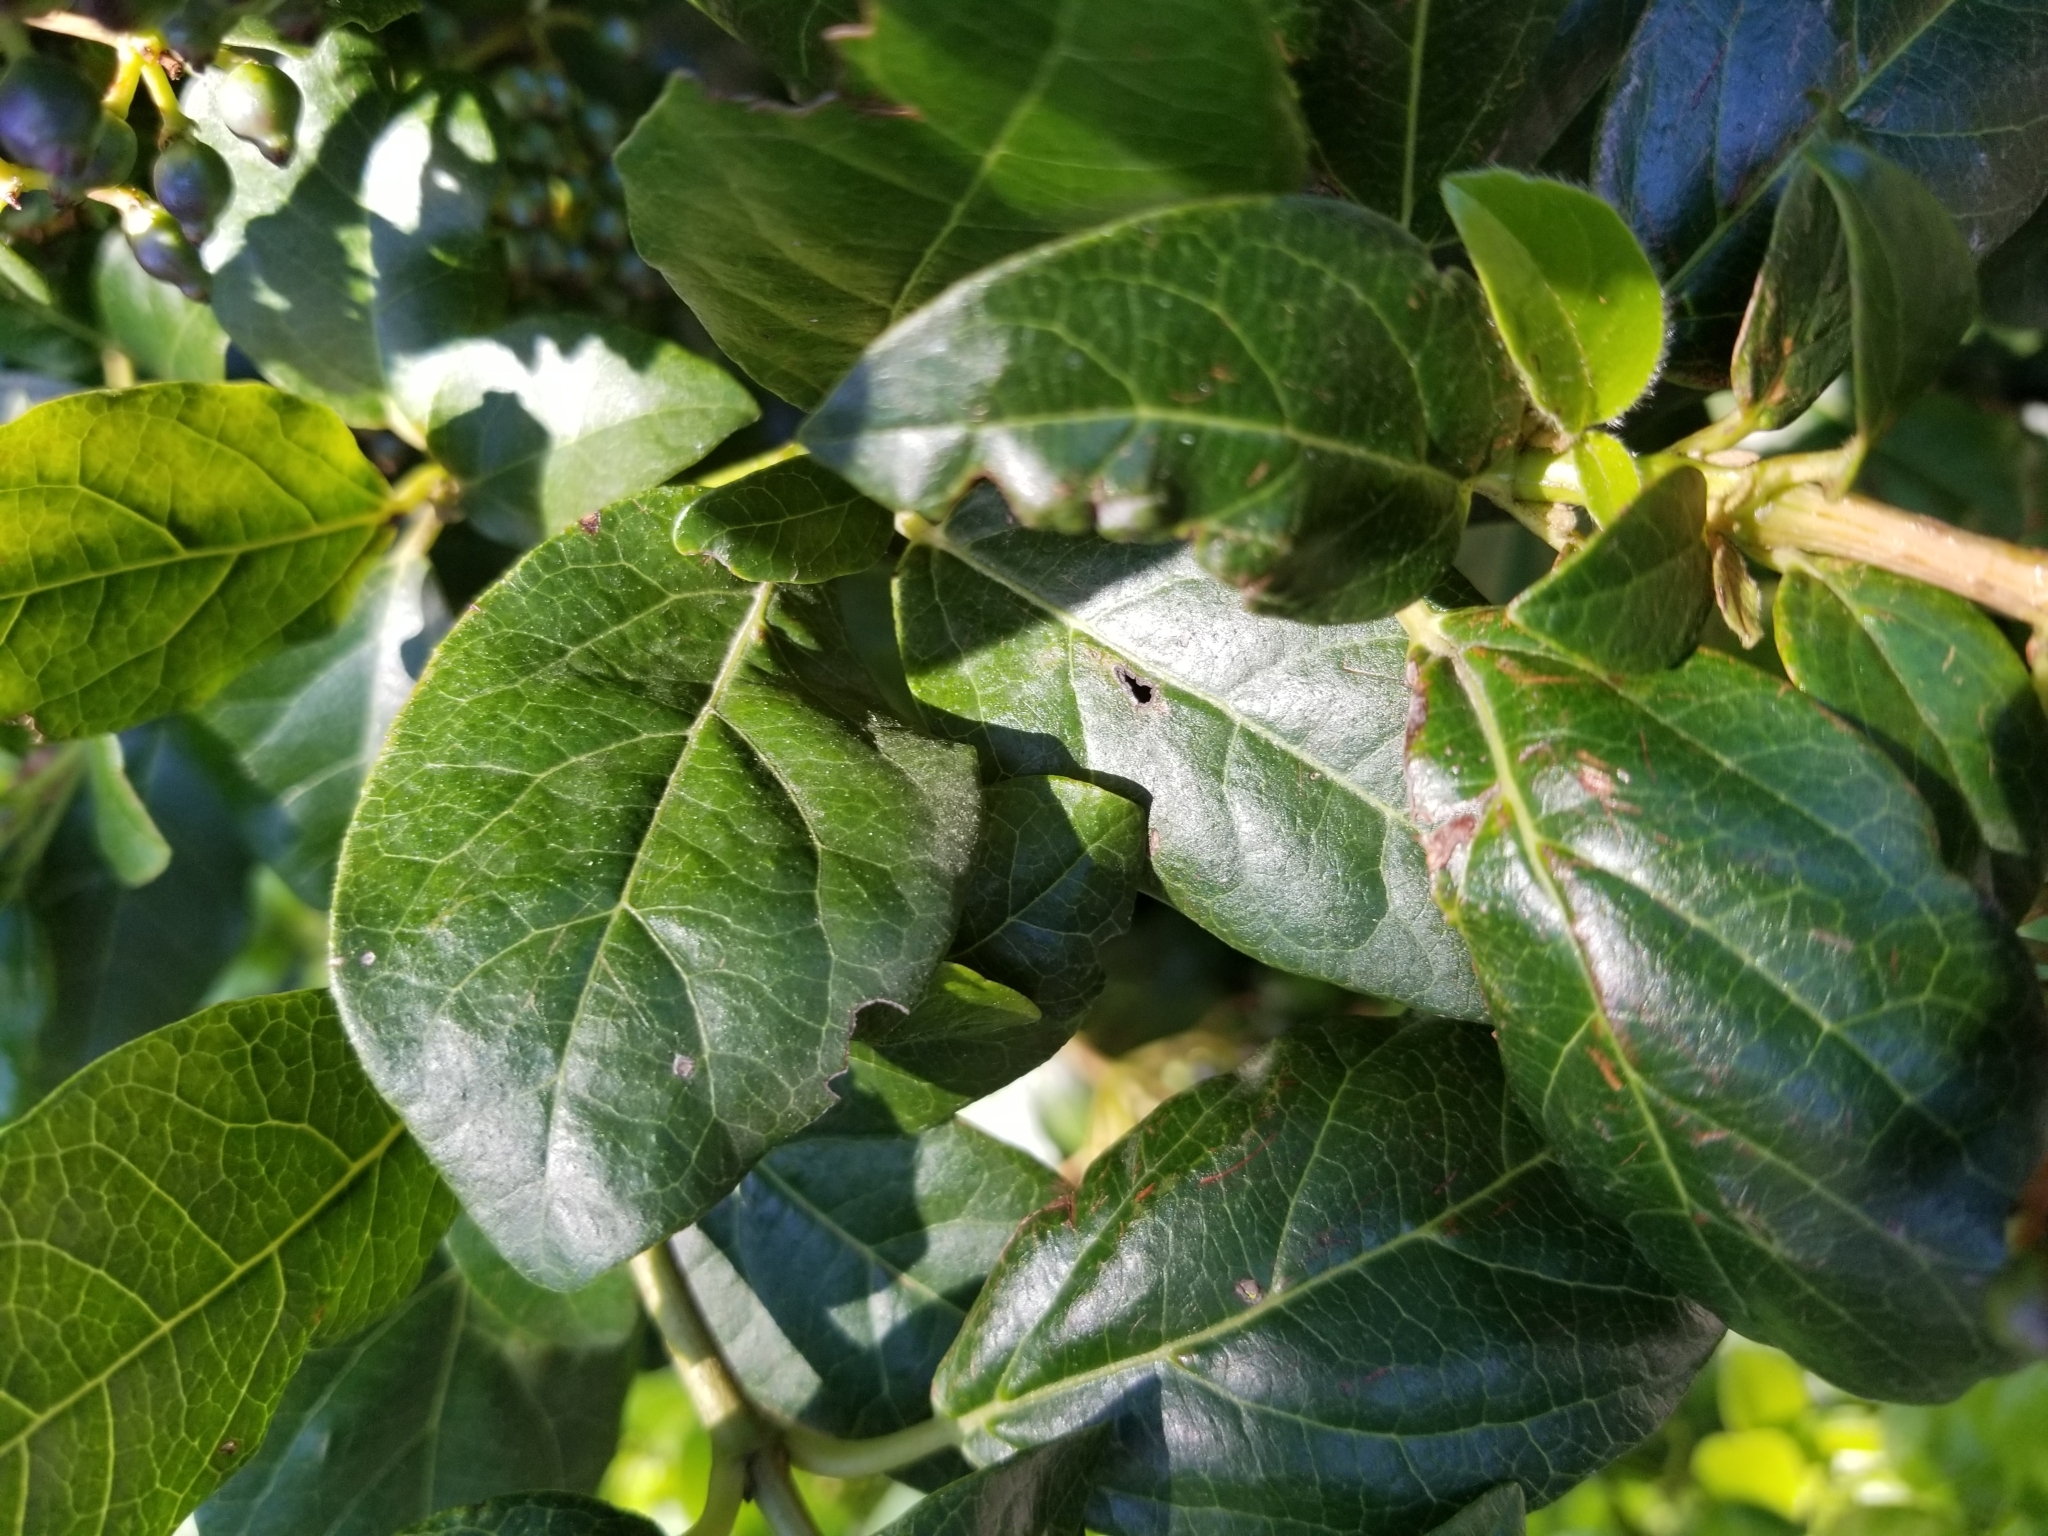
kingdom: Plantae
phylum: Tracheophyta
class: Magnoliopsida
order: Dipsacales
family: Viburnaceae
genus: Viburnum
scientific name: Viburnum tinus
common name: Laurustinus
